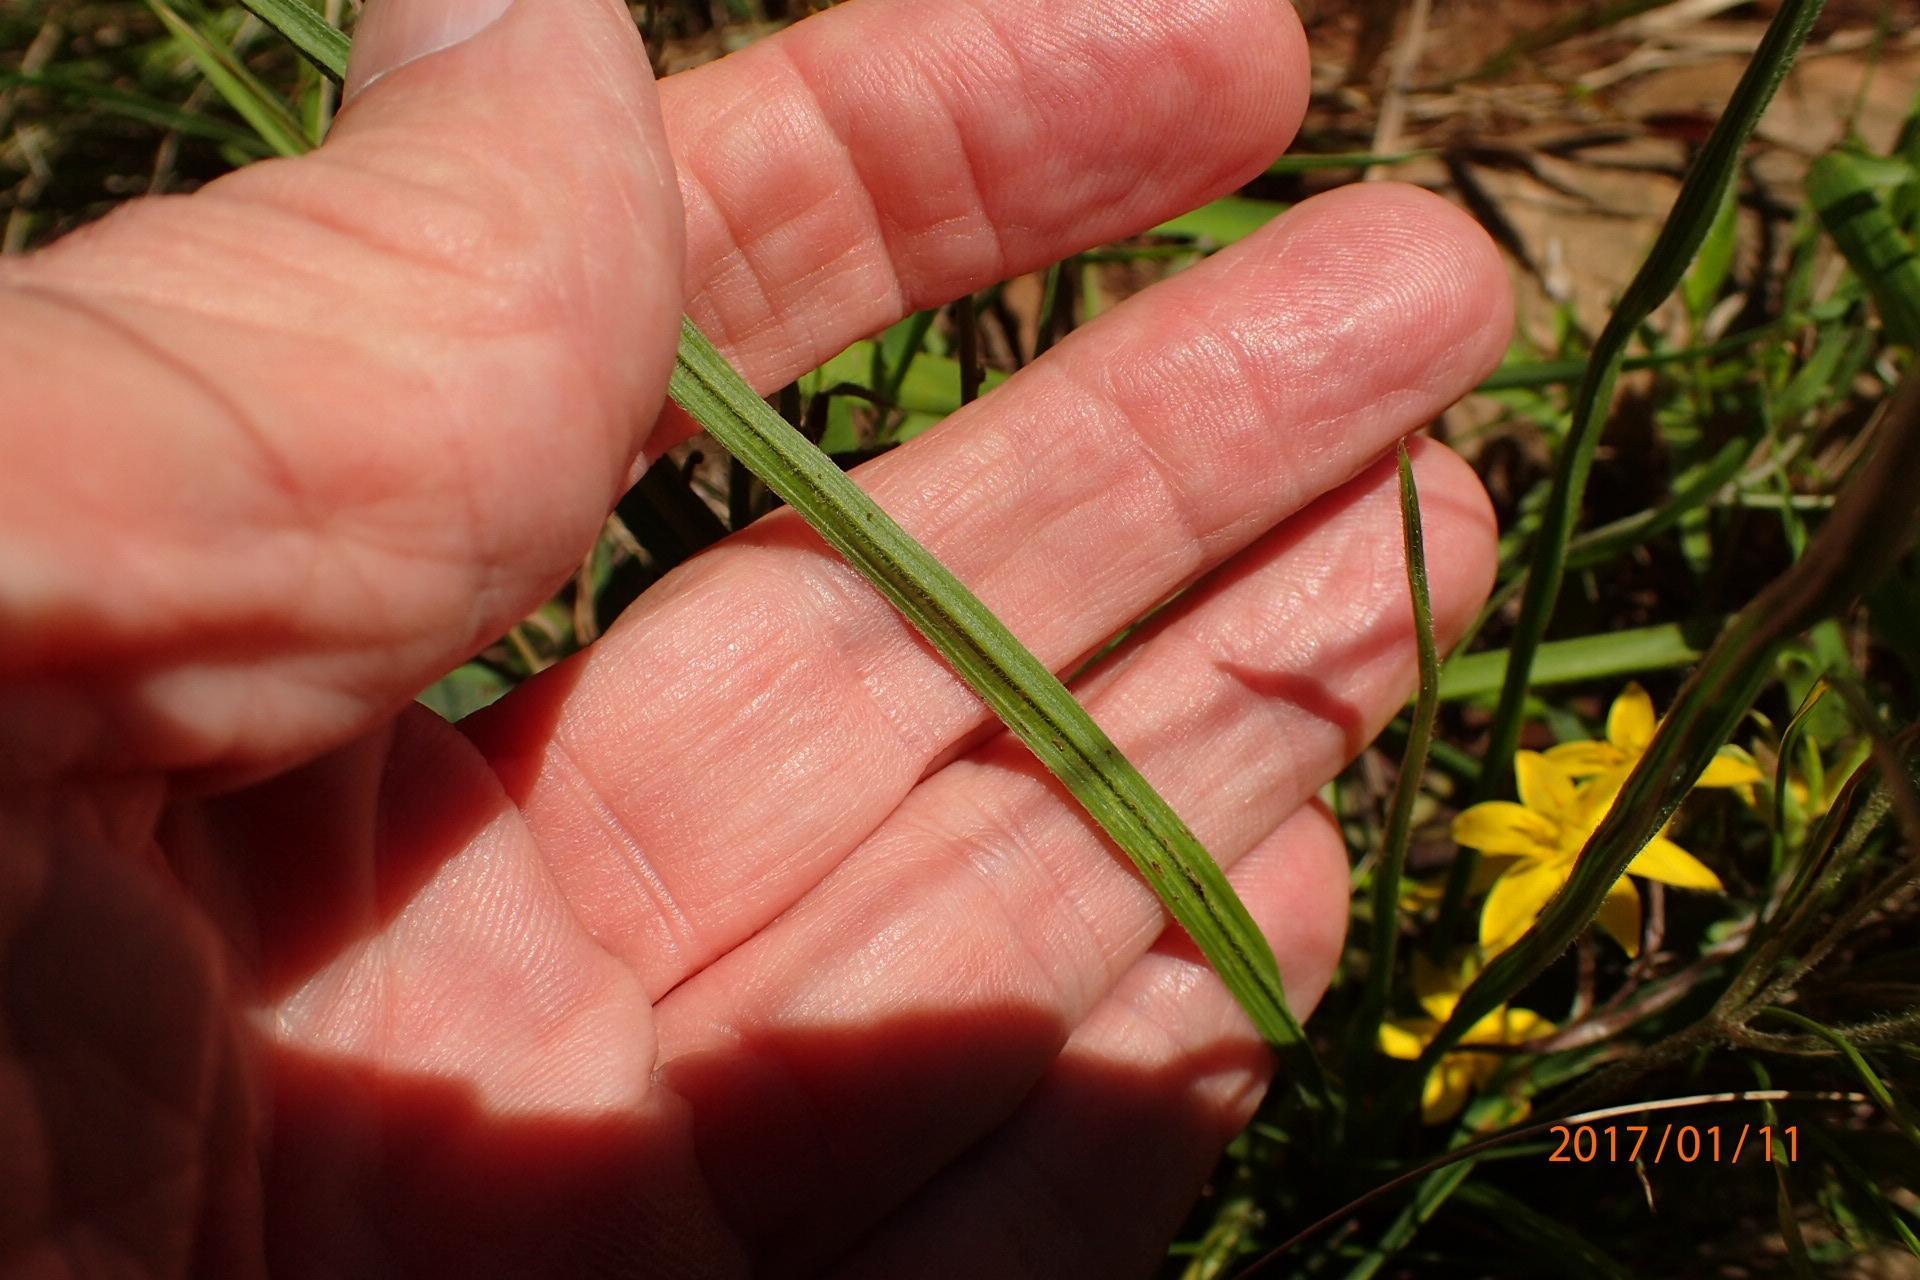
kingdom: Plantae
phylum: Tracheophyta
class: Liliopsida
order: Asparagales
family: Hypoxidaceae
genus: Hypoxis
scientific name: Hypoxis angustifolia
